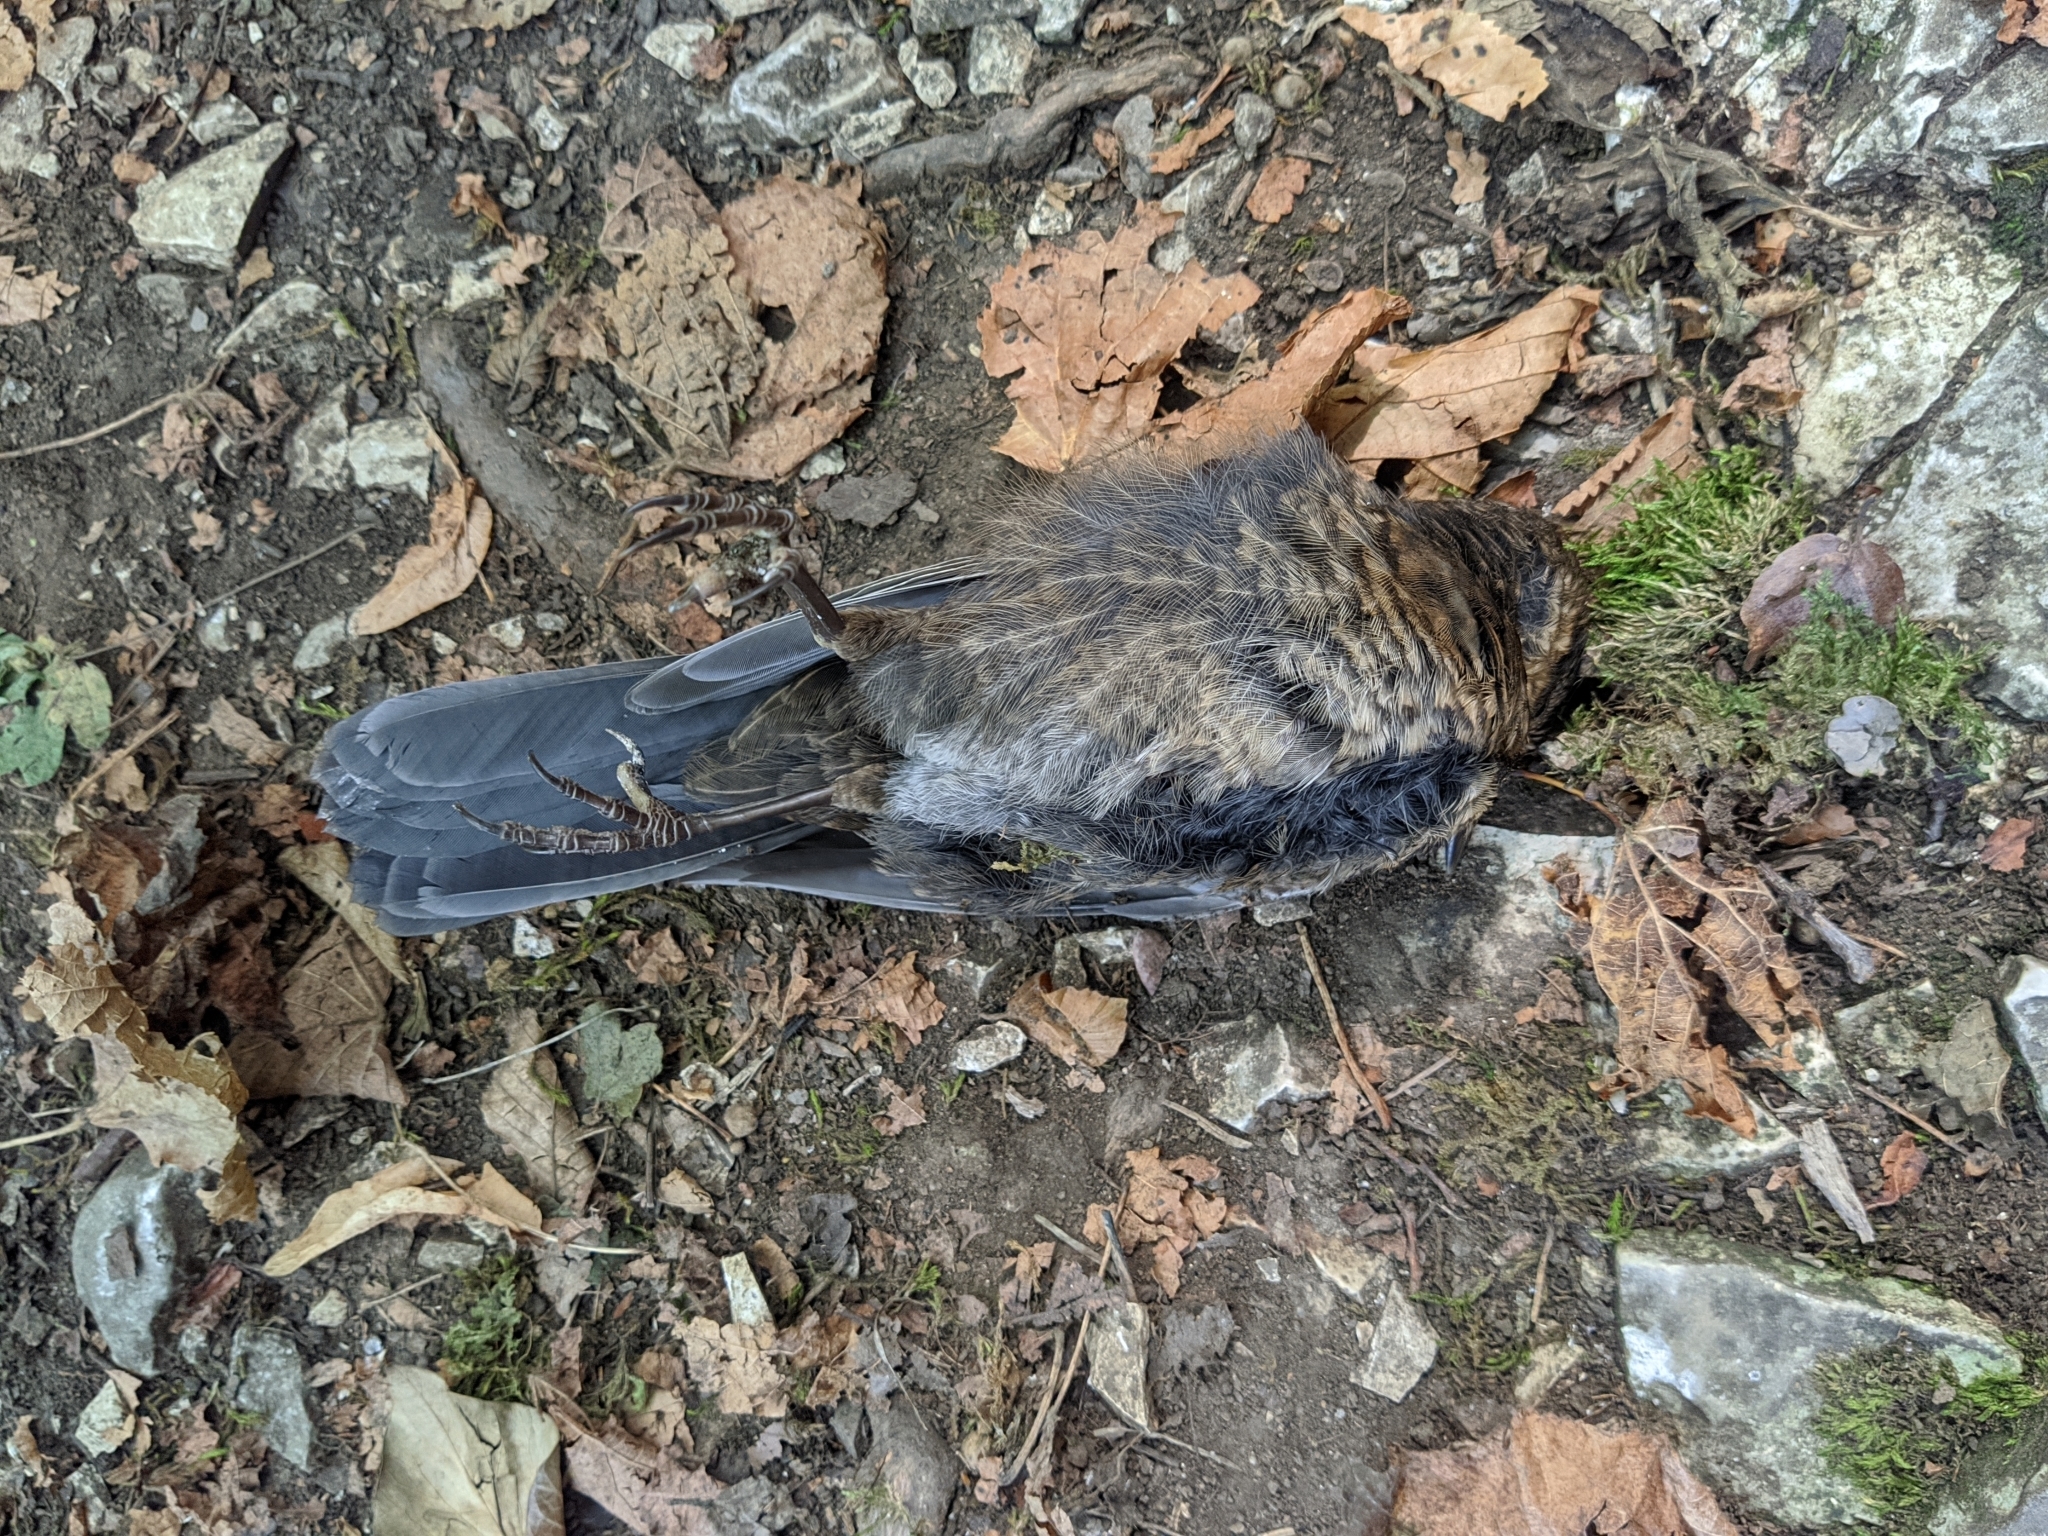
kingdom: Animalia
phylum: Chordata
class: Aves
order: Passeriformes
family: Turdidae
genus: Turdus
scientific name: Turdus merula
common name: Common blackbird
